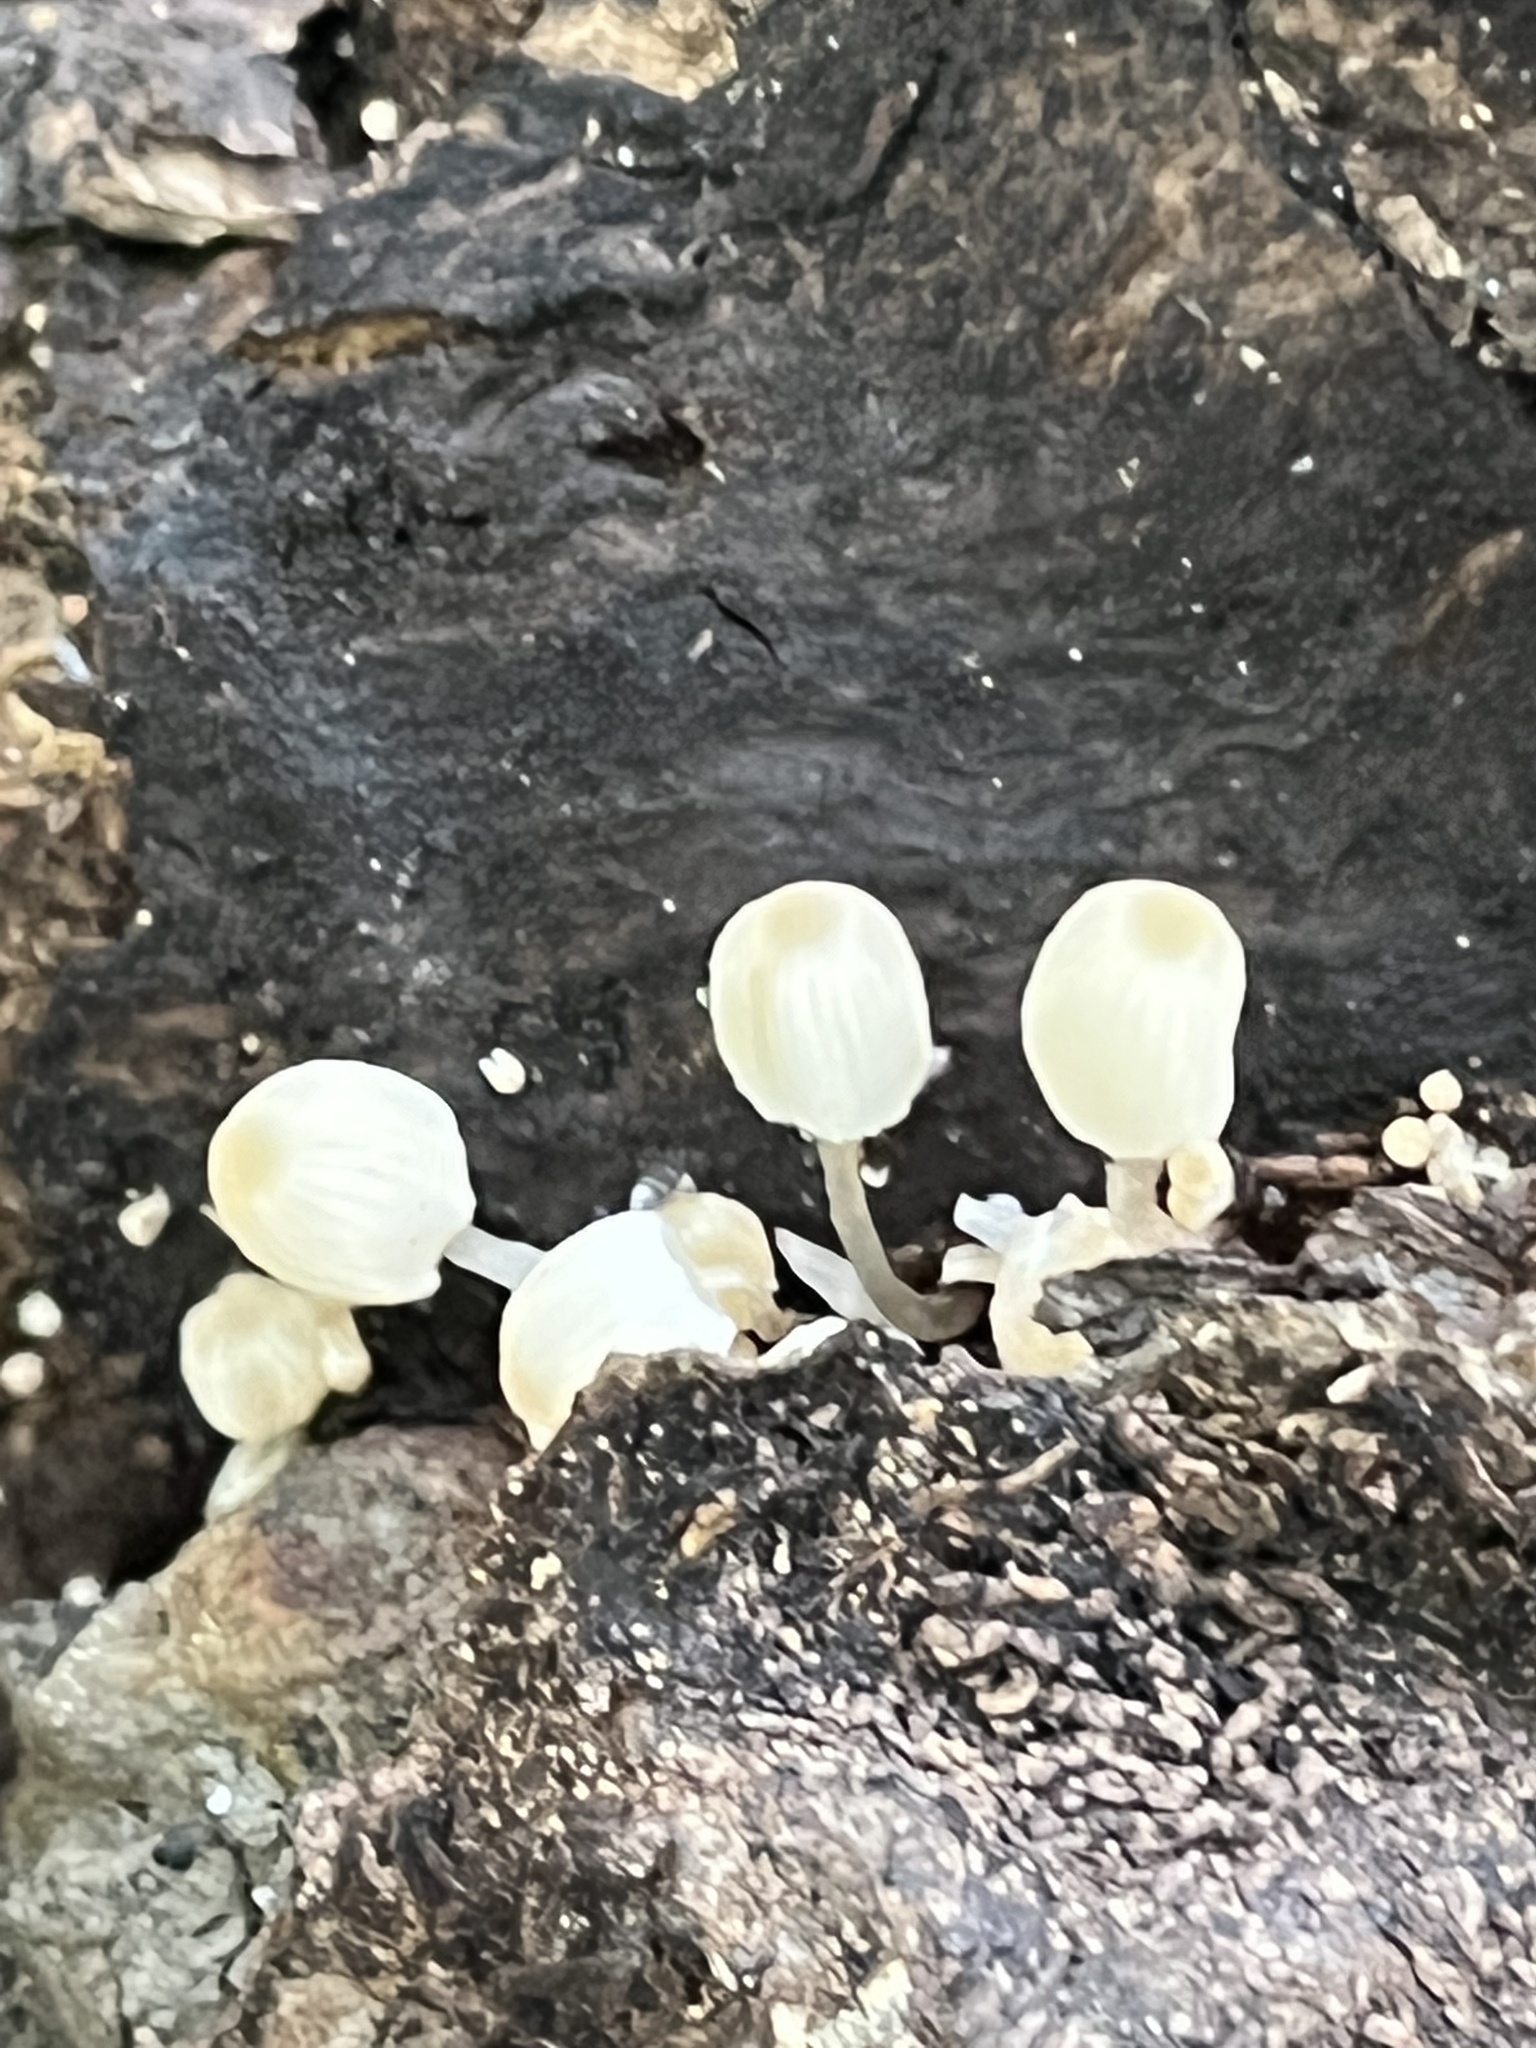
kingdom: Fungi
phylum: Basidiomycota
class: Agaricomycetes
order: Agaricales
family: Psathyrellaceae
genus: Coprinellus
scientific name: Coprinellus disseminatus
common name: Fairies' bonnets
